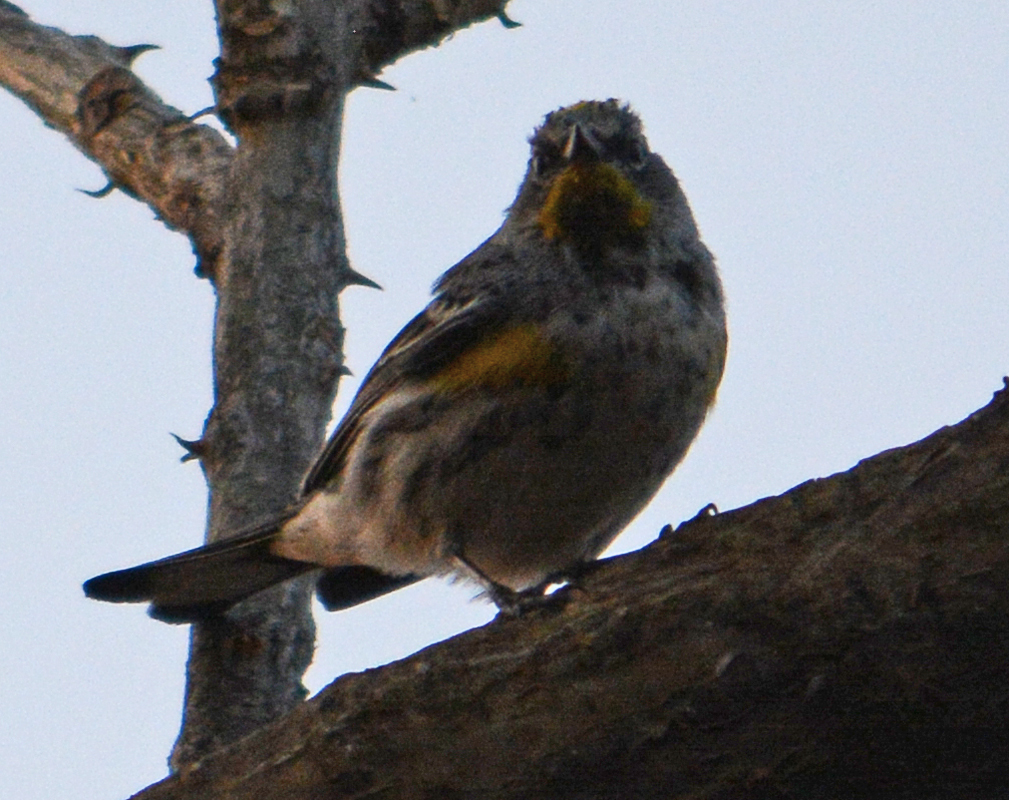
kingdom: Animalia
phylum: Chordata
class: Aves
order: Passeriformes
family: Parulidae
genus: Setophaga
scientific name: Setophaga auduboni
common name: Audubon's warbler
